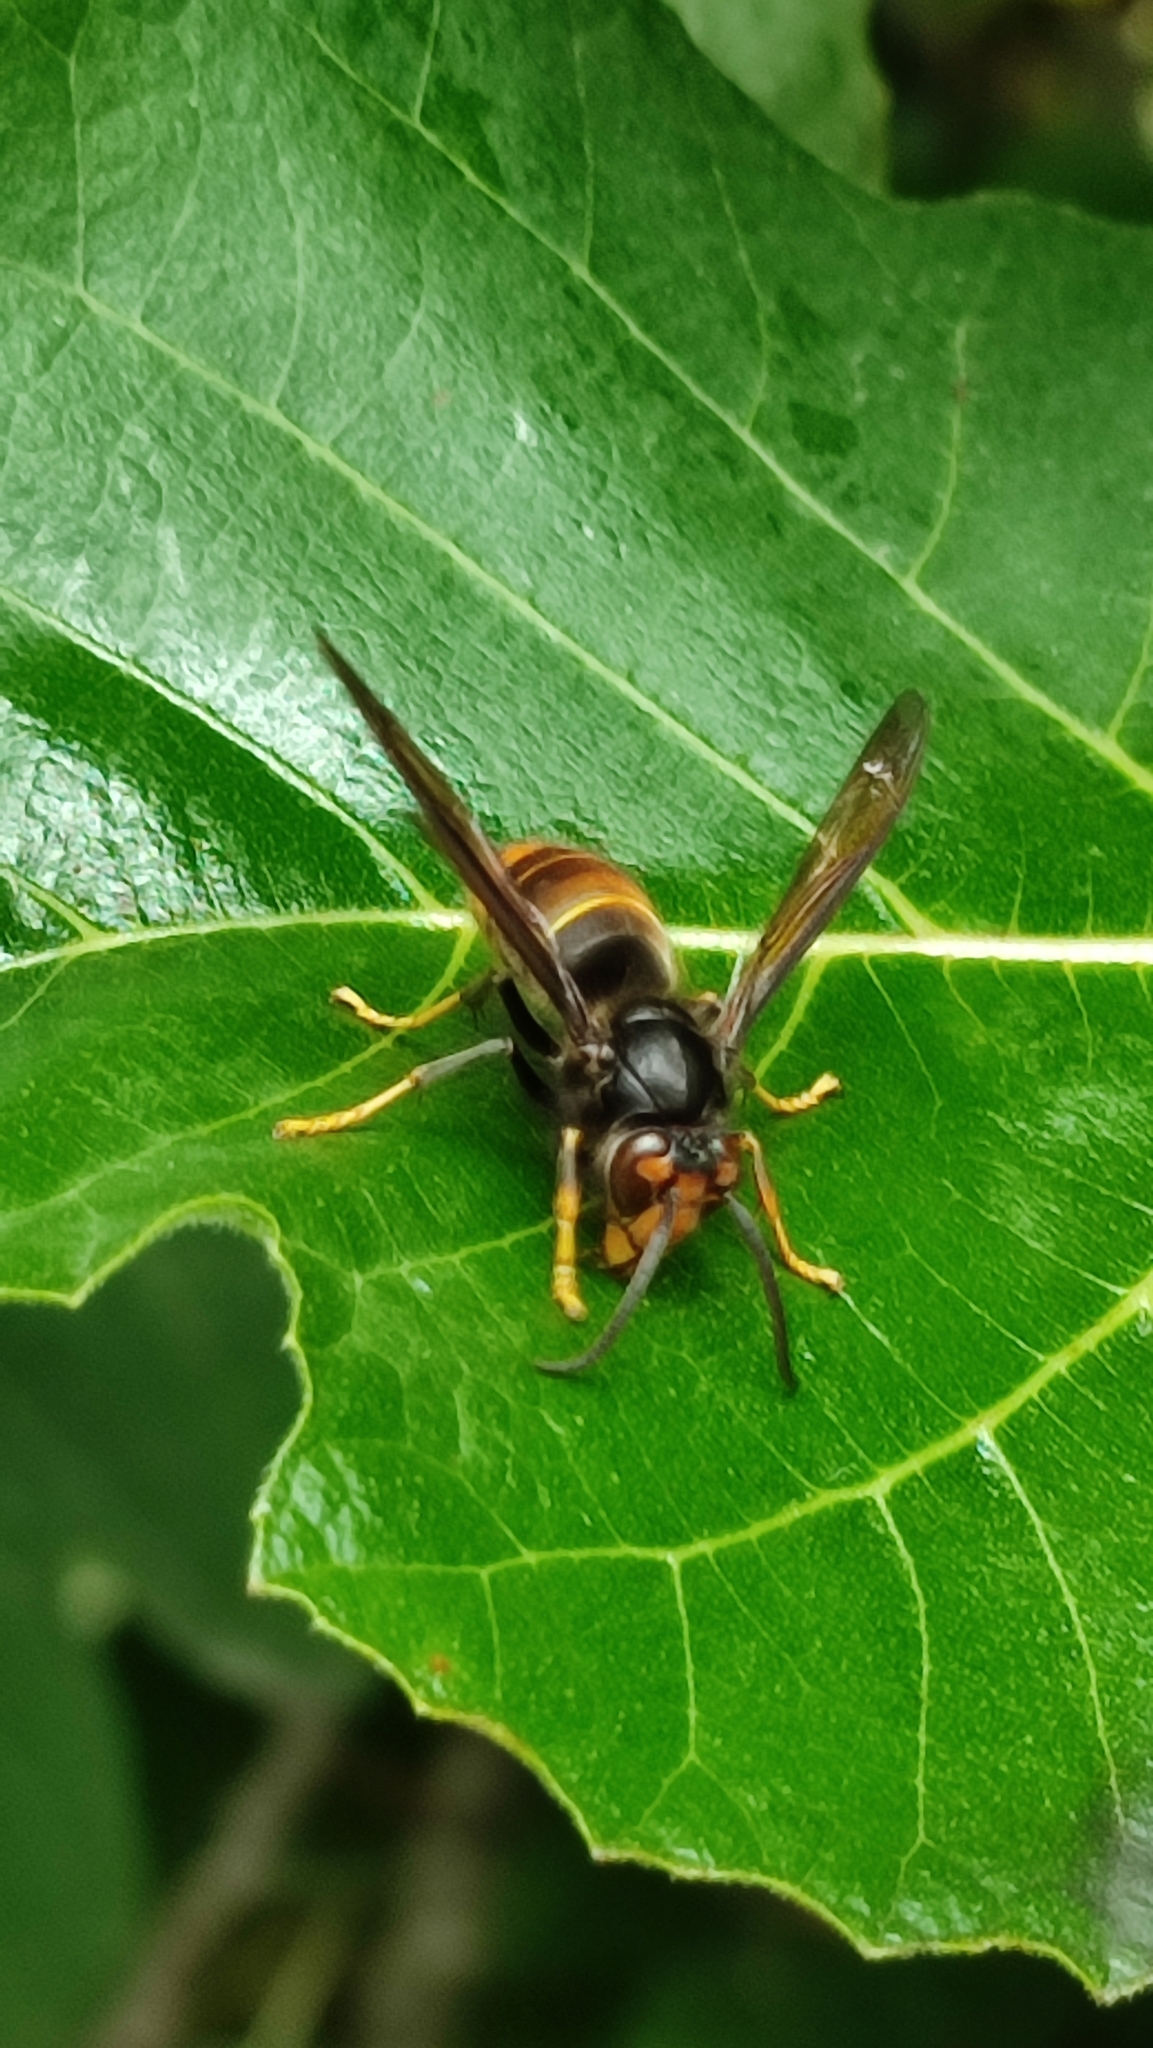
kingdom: Animalia
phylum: Arthropoda
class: Insecta
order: Hymenoptera
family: Vespidae
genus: Vespa
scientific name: Vespa velutina
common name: Asian hornet
